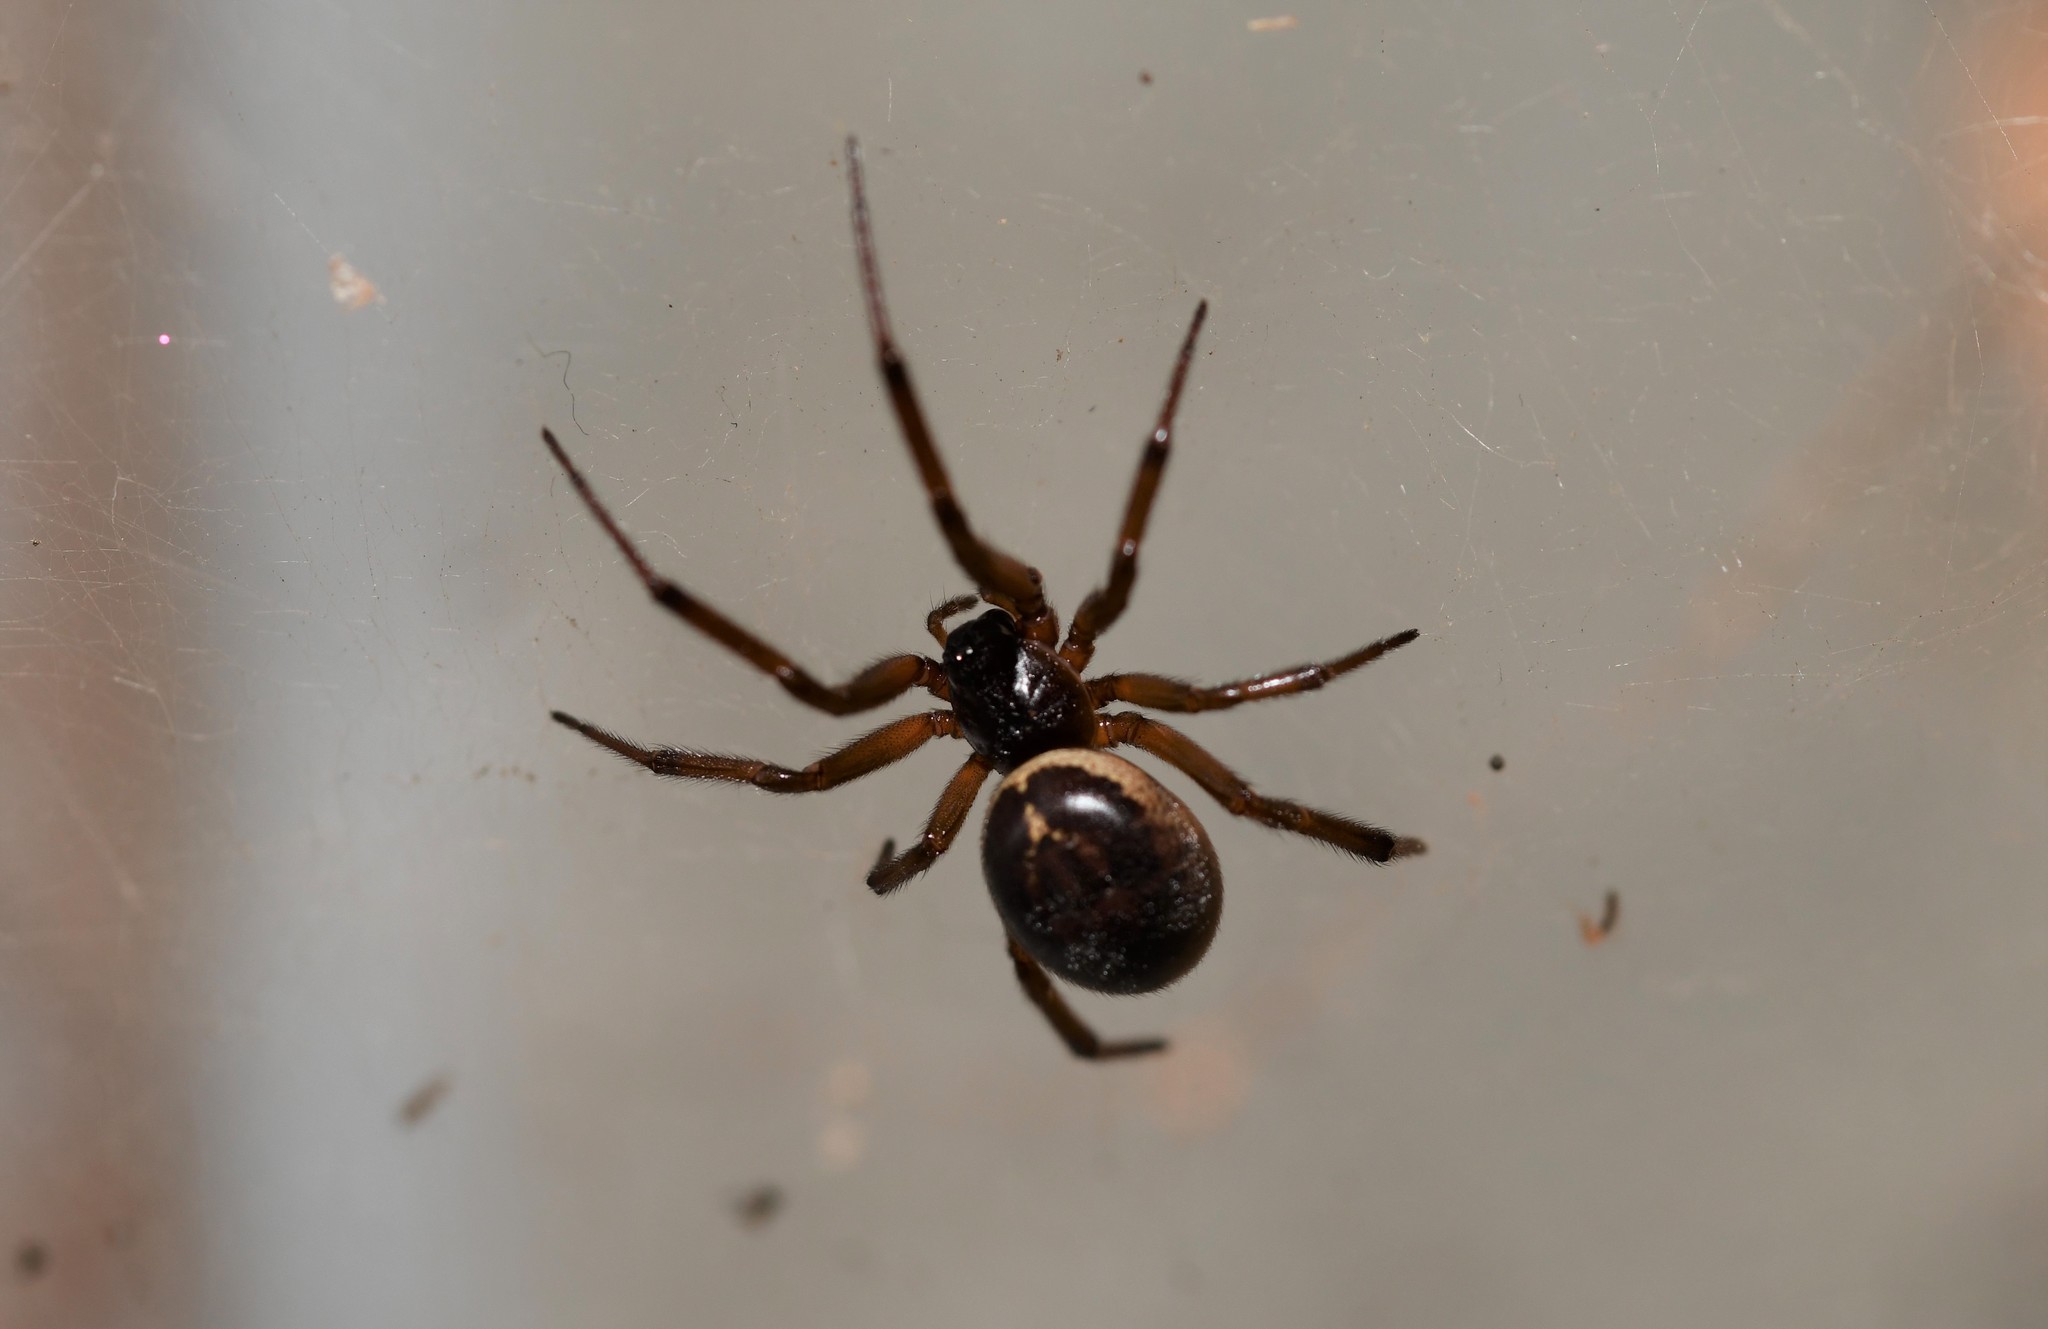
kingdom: Animalia
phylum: Arthropoda
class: Arachnida
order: Araneae
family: Theridiidae
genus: Steatoda
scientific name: Steatoda nobilis
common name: Cobweb weaver
